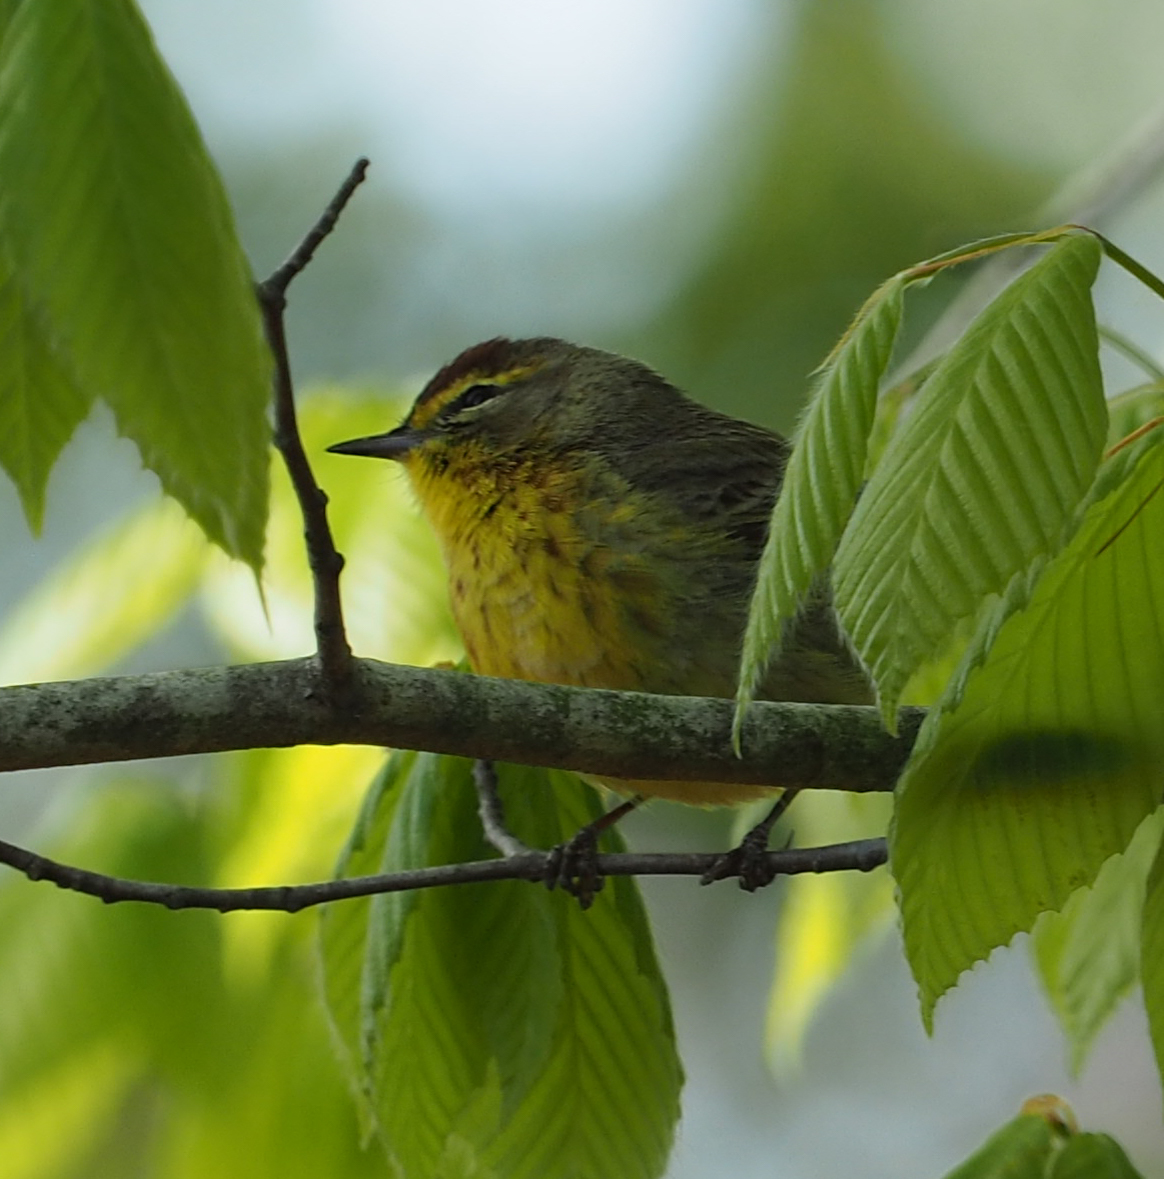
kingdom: Animalia
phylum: Chordata
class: Aves
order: Passeriformes
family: Parulidae
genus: Setophaga
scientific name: Setophaga palmarum
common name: Palm warbler
